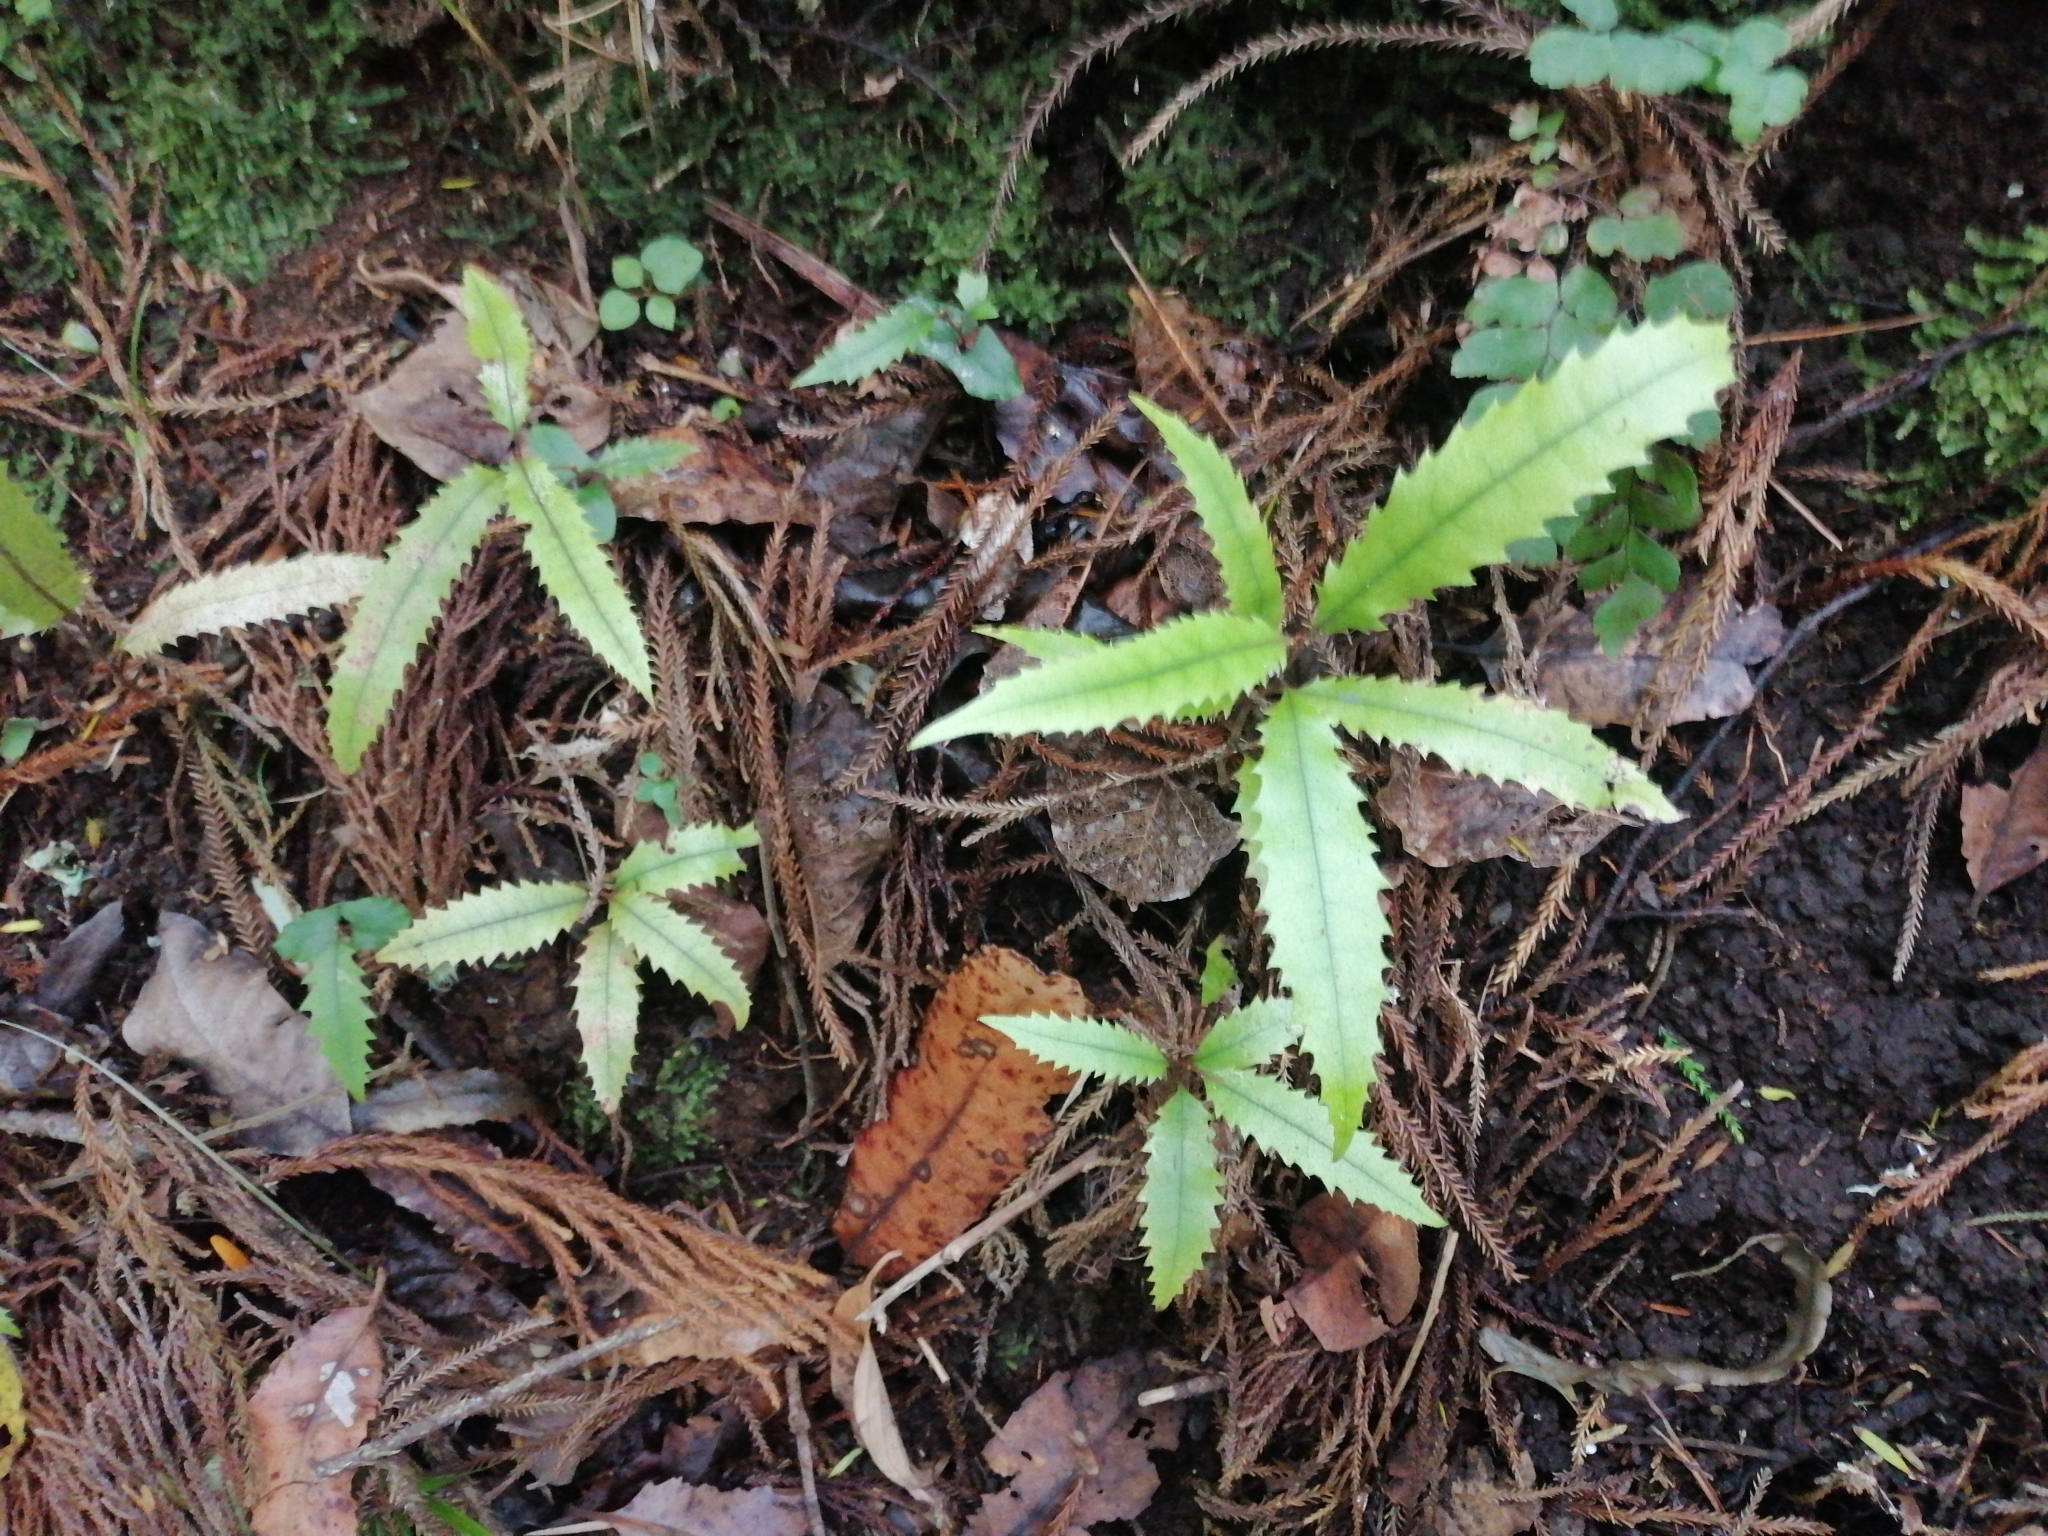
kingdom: Plantae
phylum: Tracheophyta
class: Magnoliopsida
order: Proteales
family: Proteaceae
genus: Knightia
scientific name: Knightia excelsa
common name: New zealand-honeysuckle
